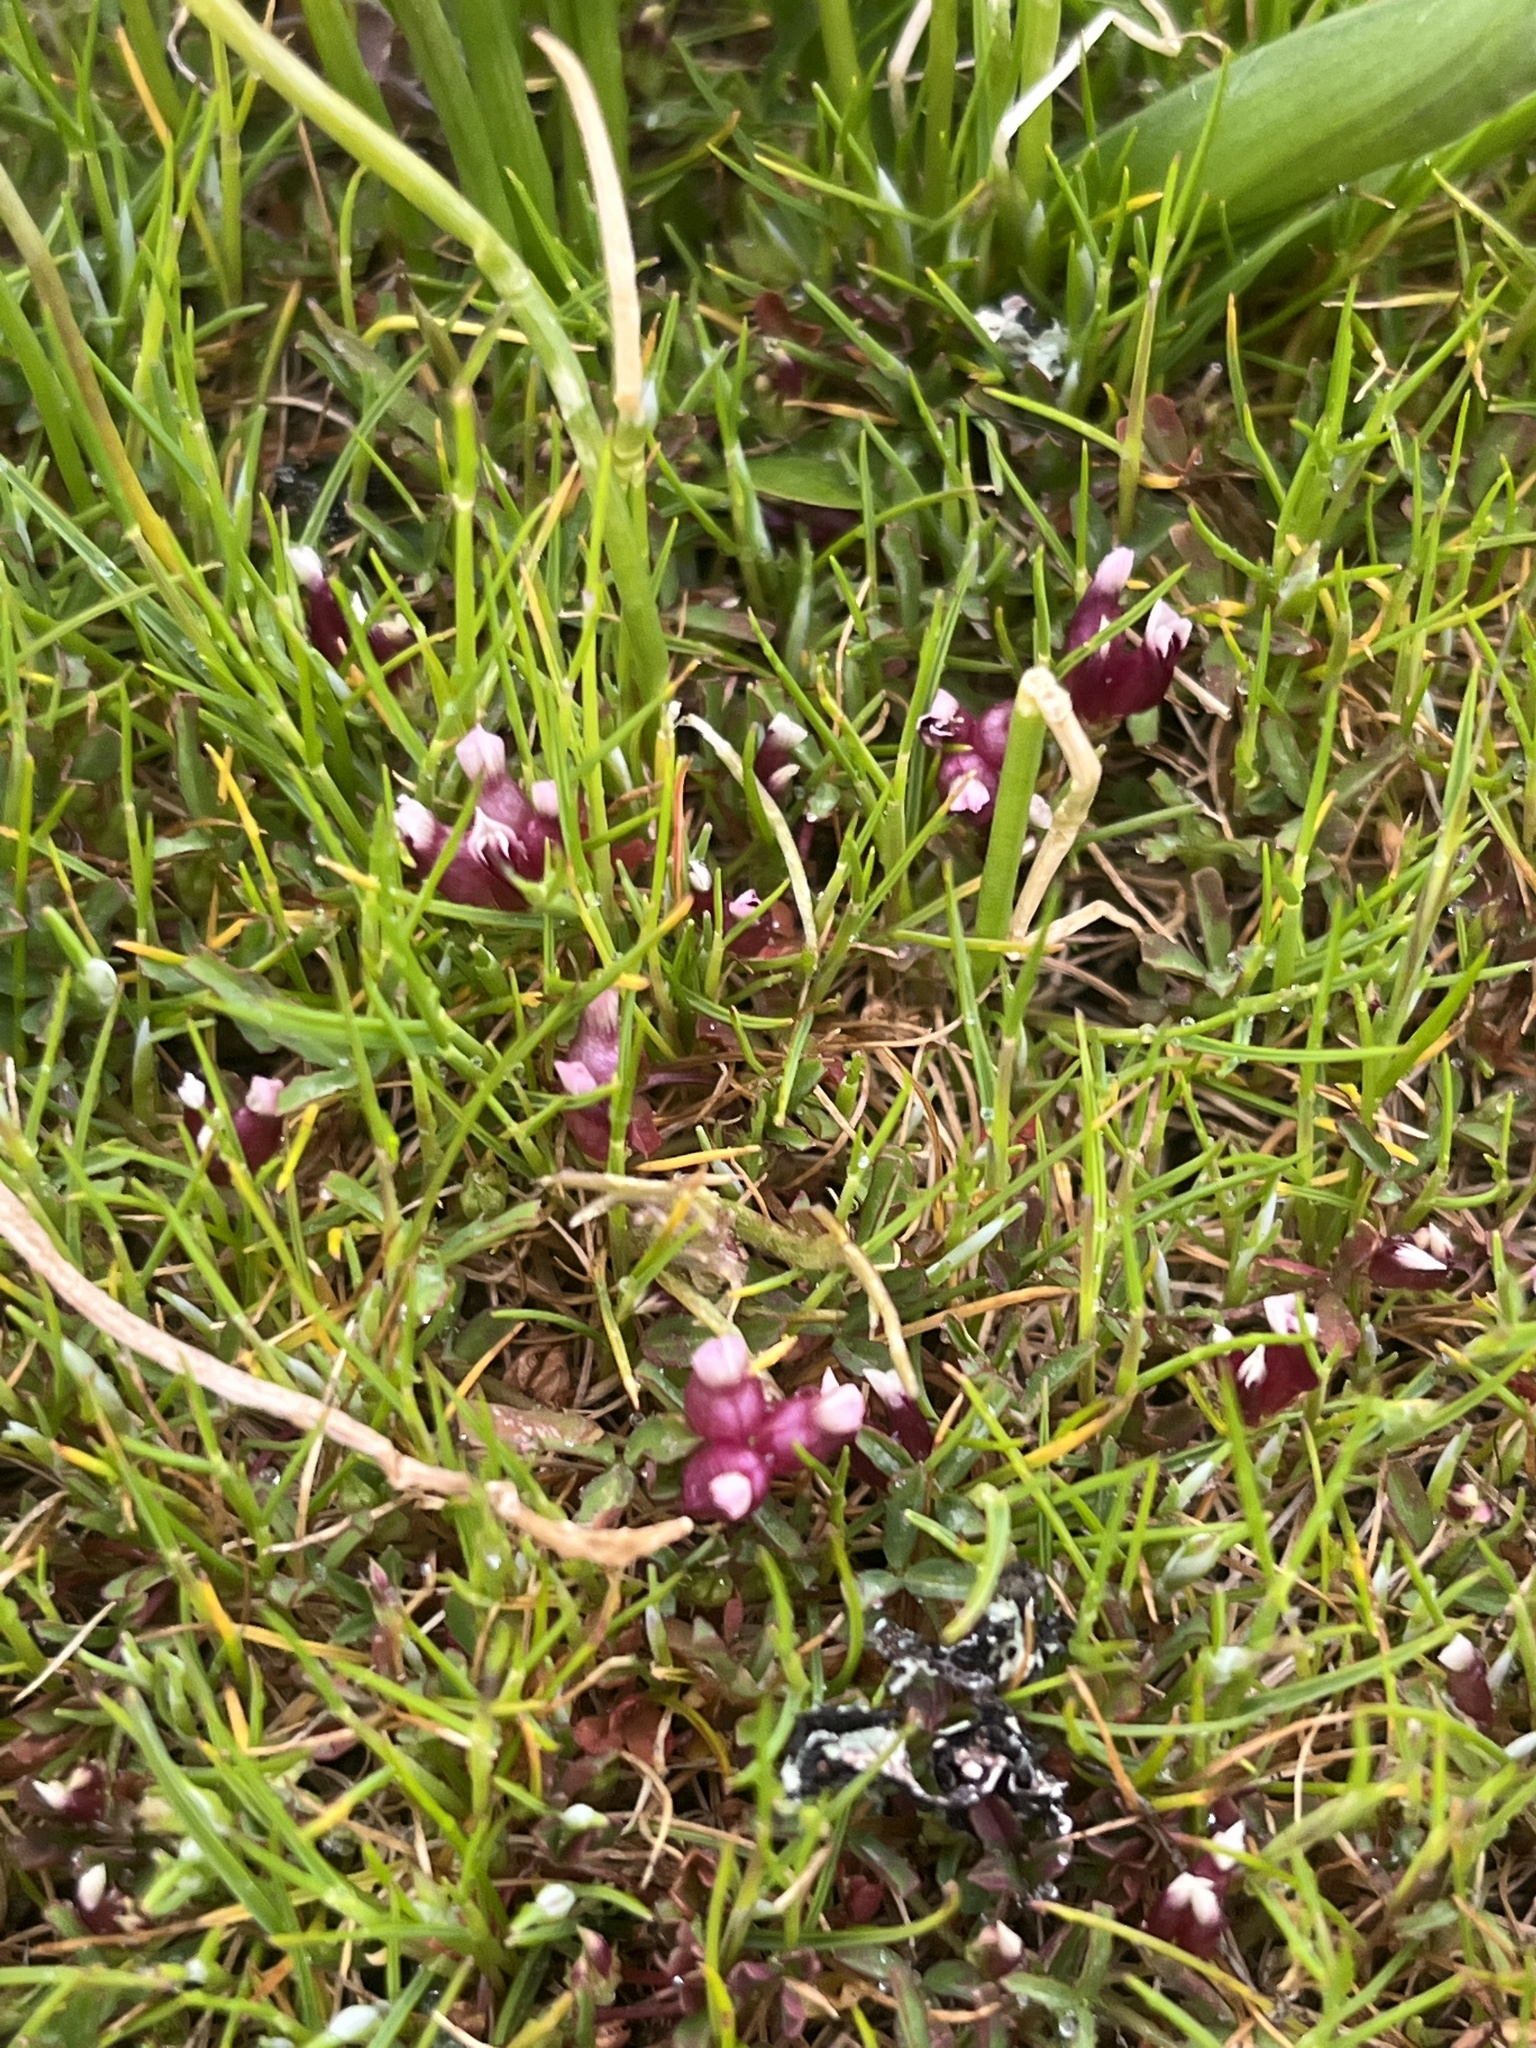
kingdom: Plantae
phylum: Tracheophyta
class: Magnoliopsida
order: Fabales
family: Fabaceae
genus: Trifolium
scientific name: Trifolium depauperatum
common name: Poverty clover
